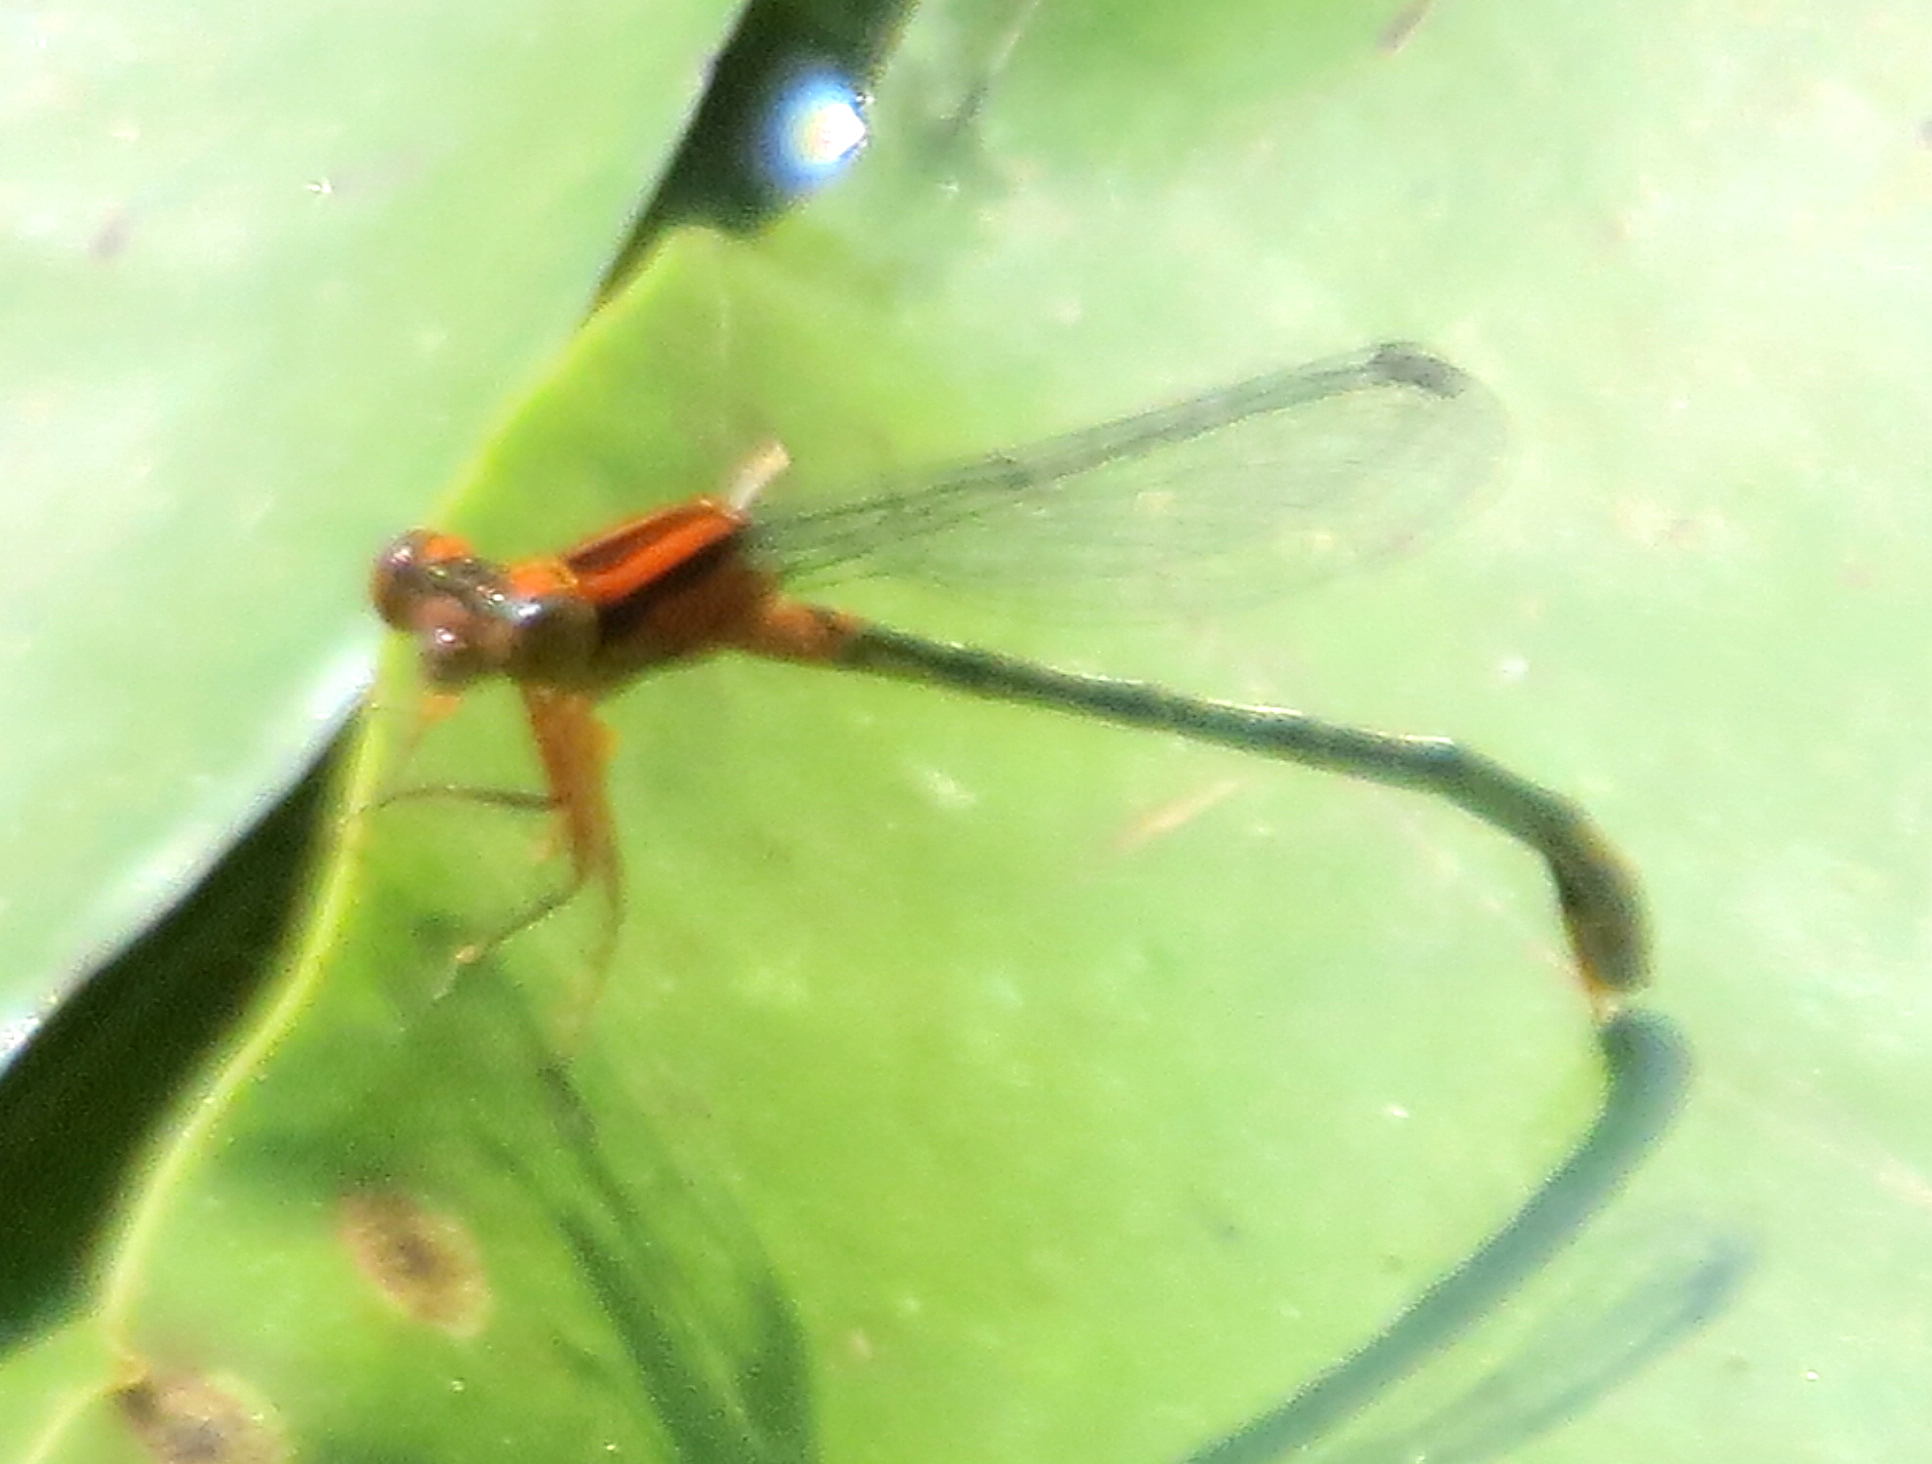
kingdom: Animalia
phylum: Arthropoda
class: Insecta
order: Odonata
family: Coenagrionidae
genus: Ischnura
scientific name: Ischnura kellicotti
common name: Lilypad forktail
